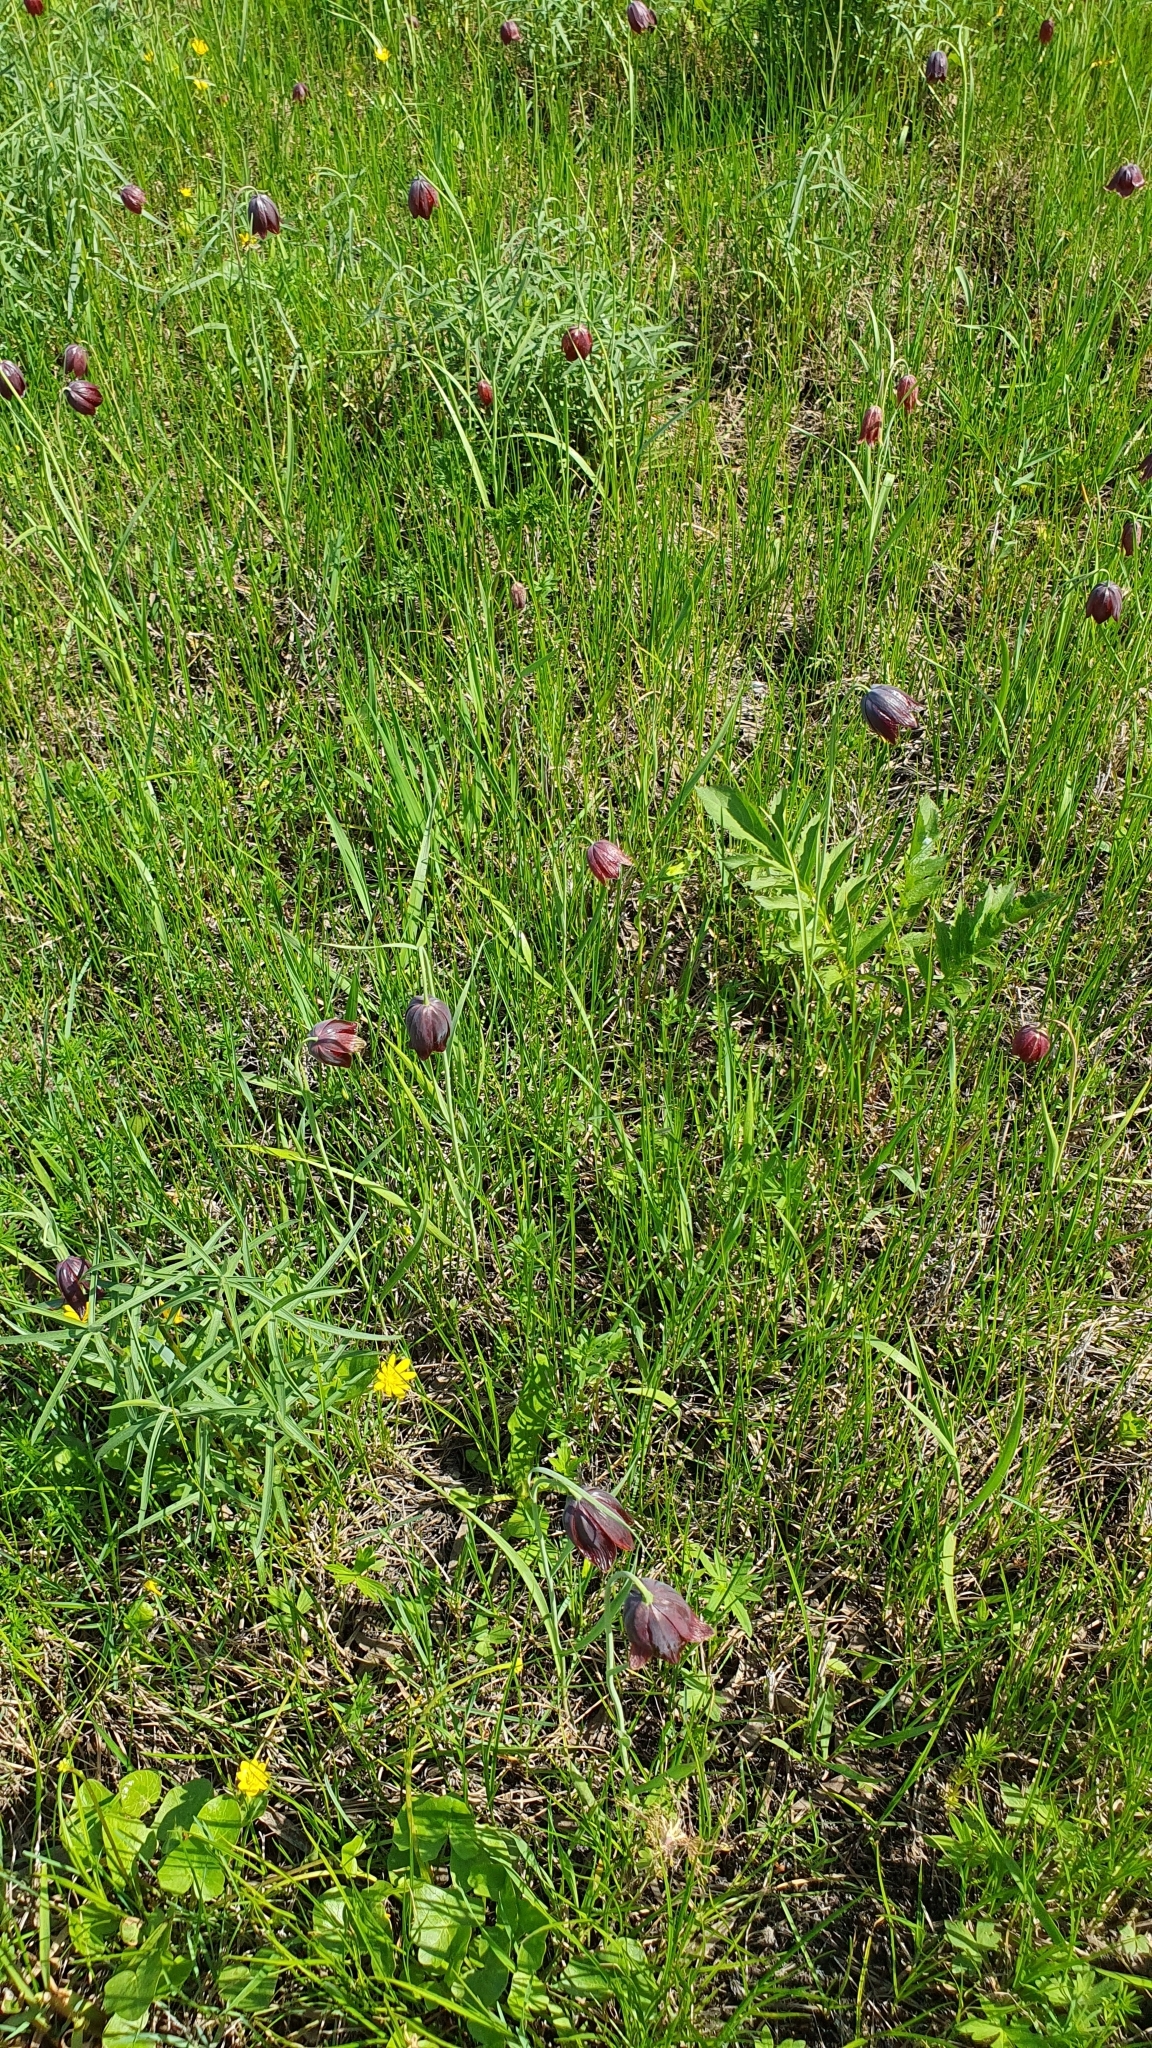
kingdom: Plantae
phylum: Tracheophyta
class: Liliopsida
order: Liliales
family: Liliaceae
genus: Fritillaria
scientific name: Fritillaria meleagroides
